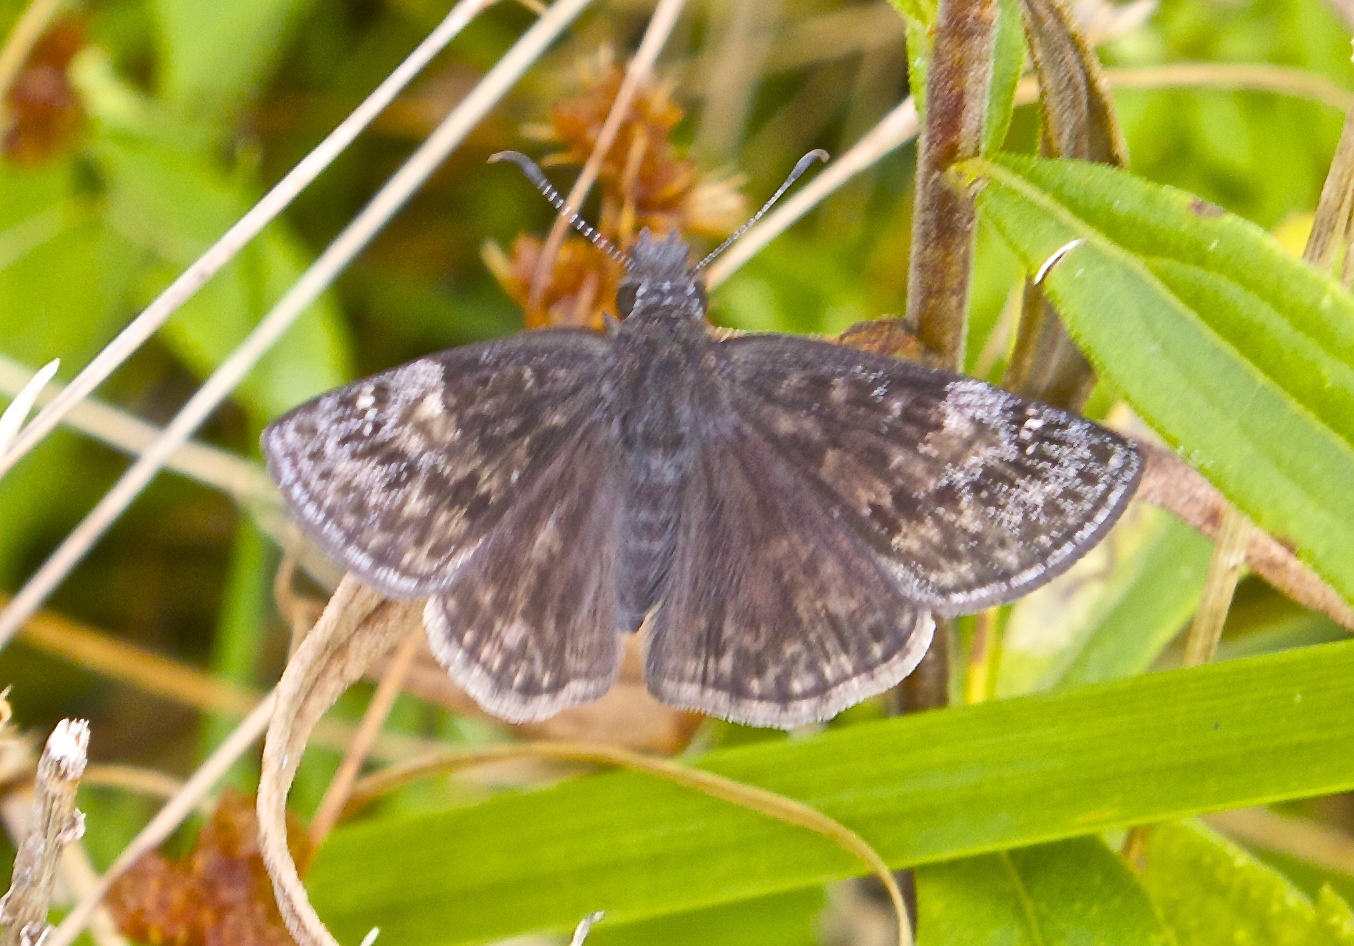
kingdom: Animalia
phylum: Arthropoda
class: Insecta
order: Lepidoptera
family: Hesperiidae
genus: Erynnis
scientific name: Erynnis baptisiae
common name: Wild indigo duskywing
